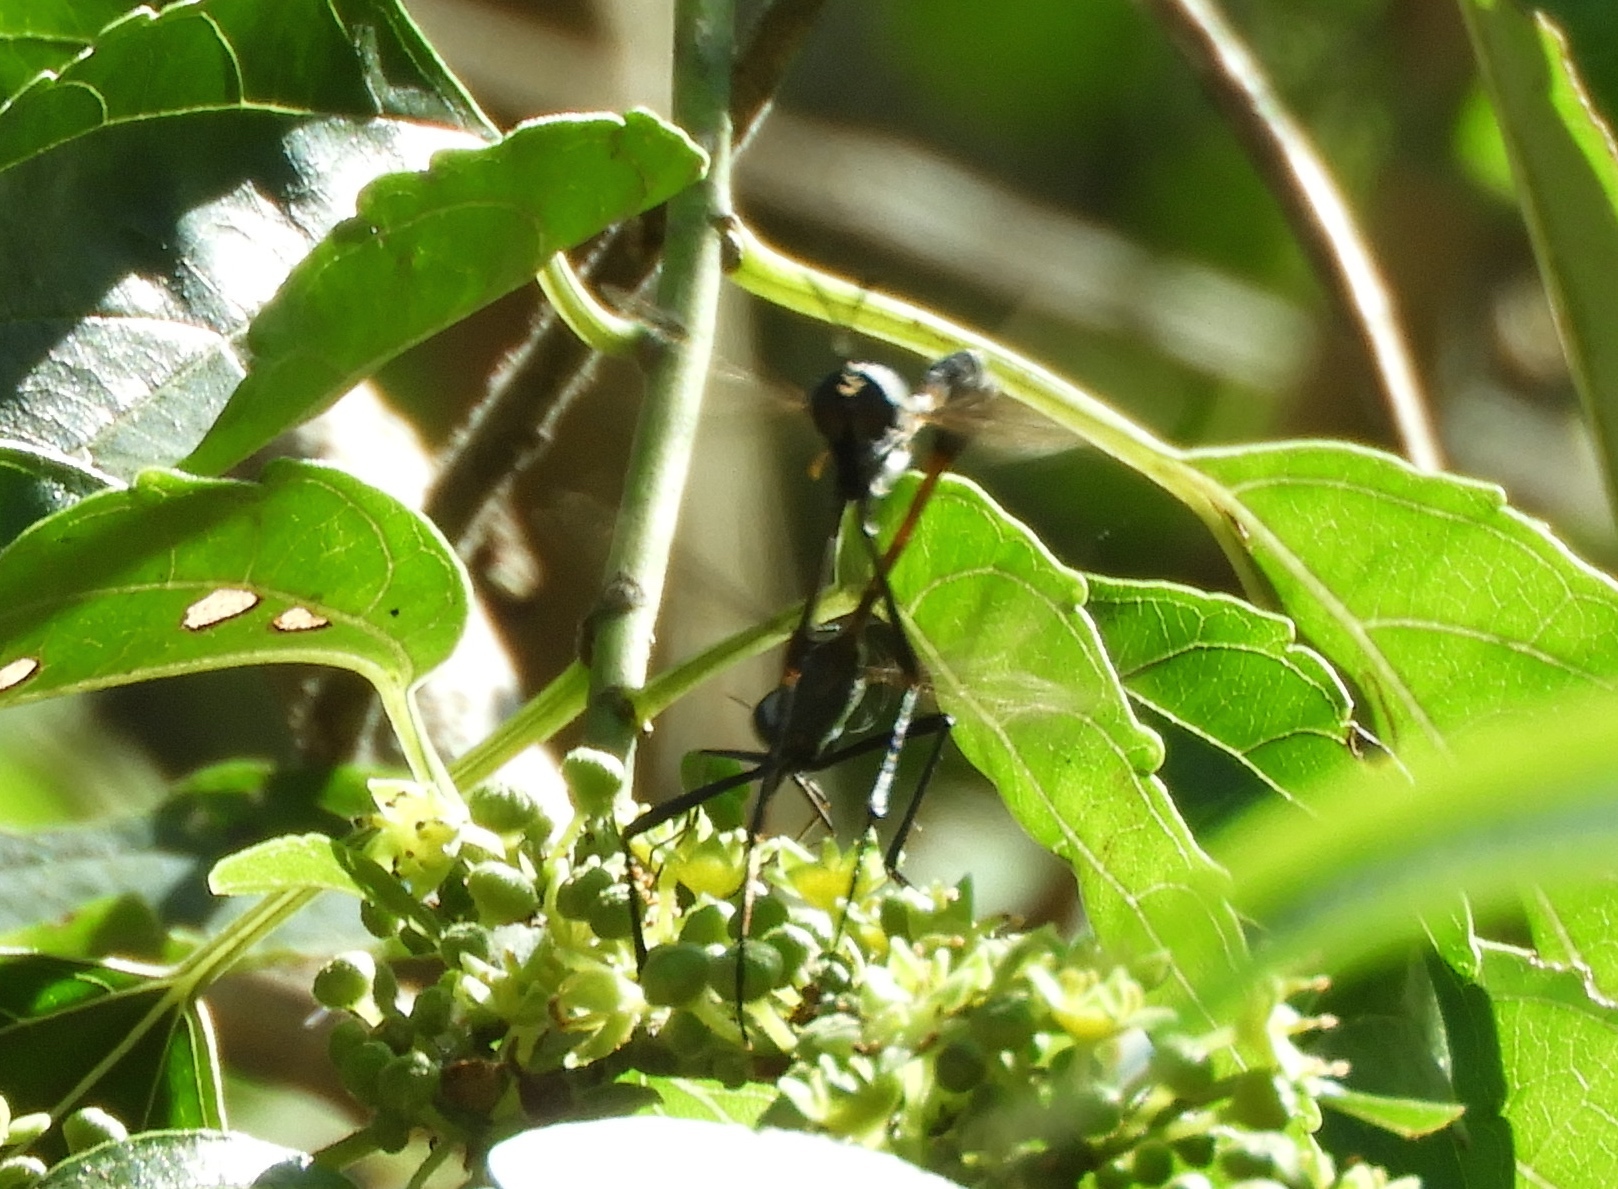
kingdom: Animalia
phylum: Arthropoda
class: Insecta
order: Diptera
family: Bombyliidae
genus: Systropus
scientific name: Systropus
